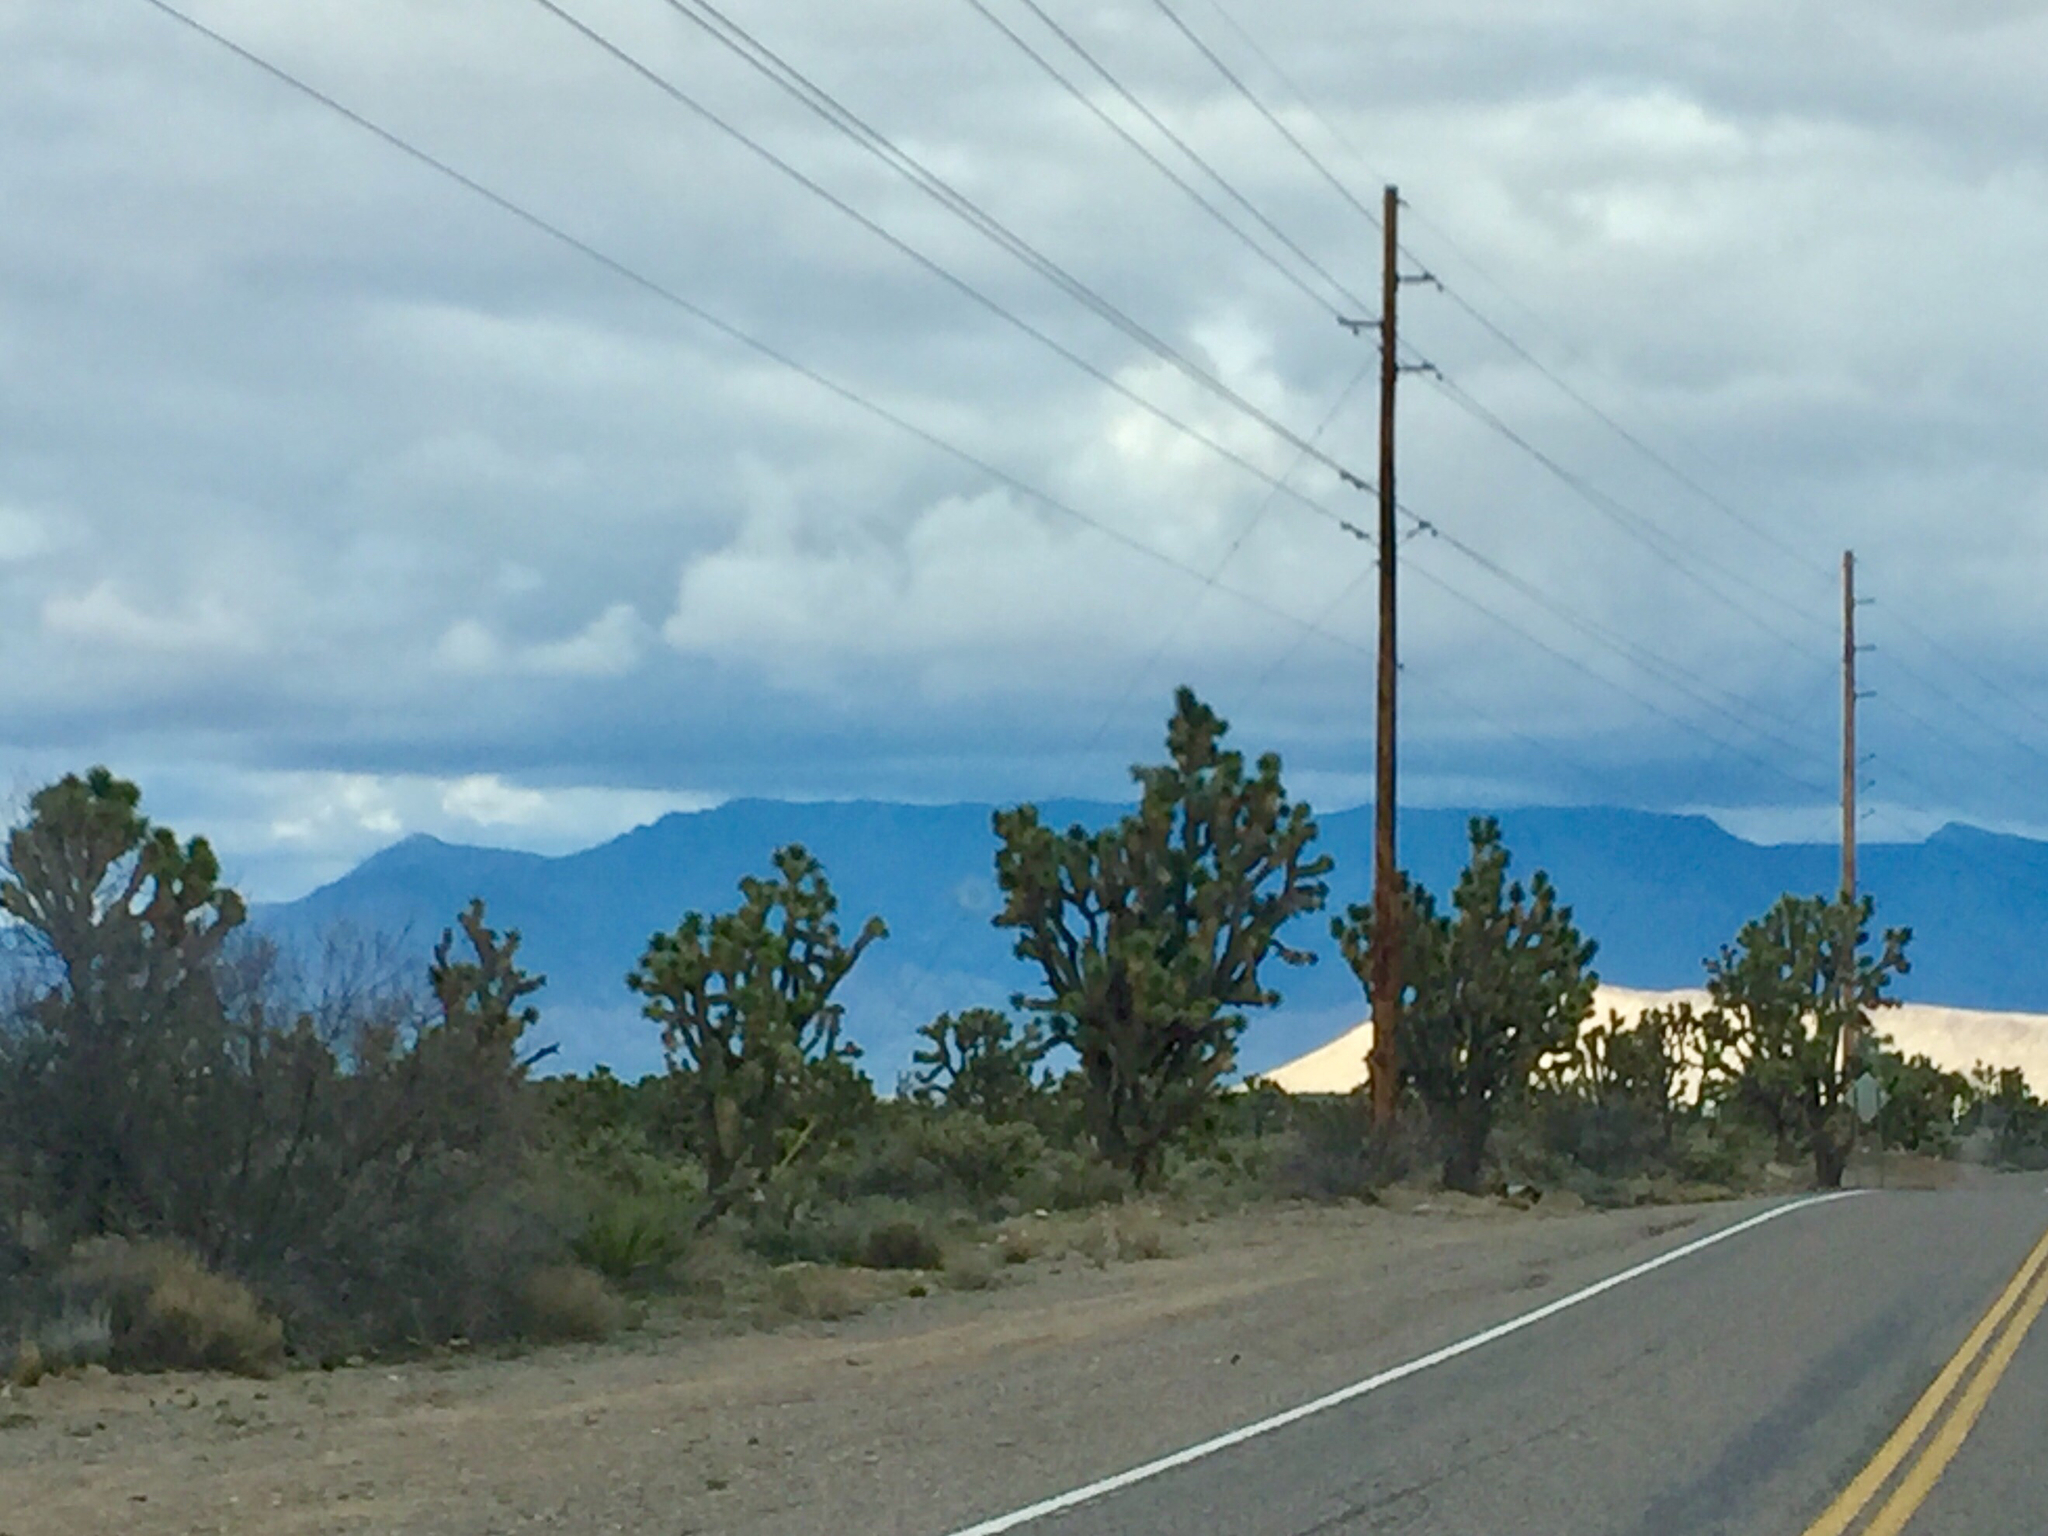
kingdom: Plantae
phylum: Tracheophyta
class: Liliopsida
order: Asparagales
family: Asparagaceae
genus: Yucca
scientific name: Yucca brevifolia
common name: Joshua tree
